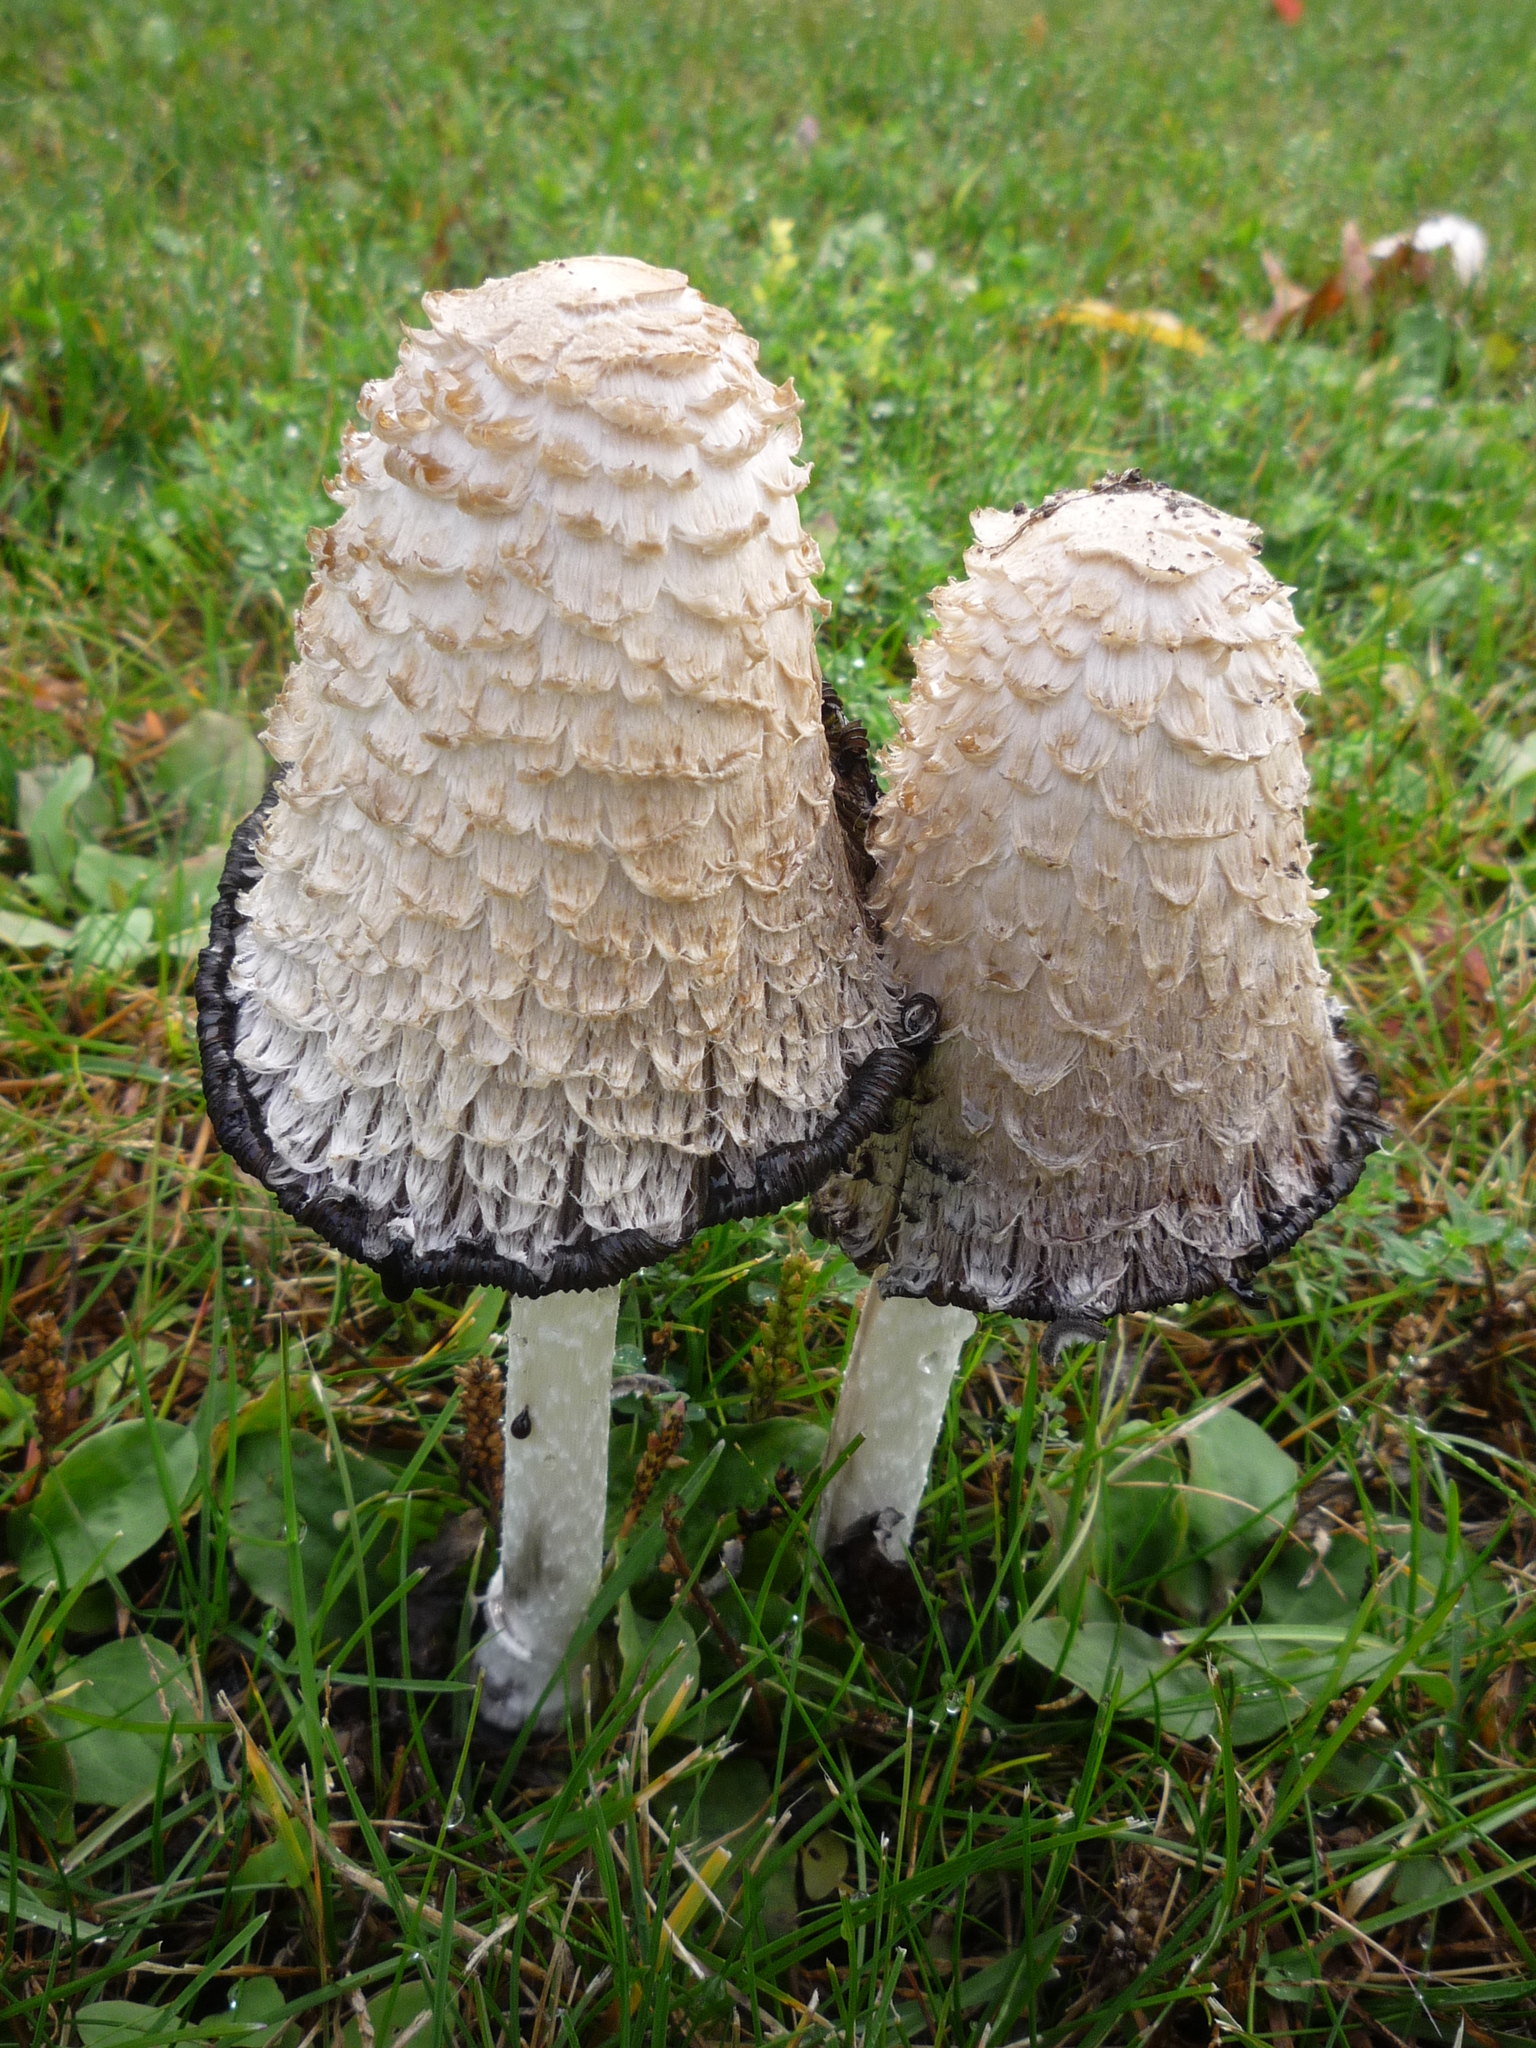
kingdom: Fungi
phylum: Basidiomycota
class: Agaricomycetes
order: Agaricales
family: Agaricaceae
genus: Coprinus
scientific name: Coprinus comatus
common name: Lawyer's wig
